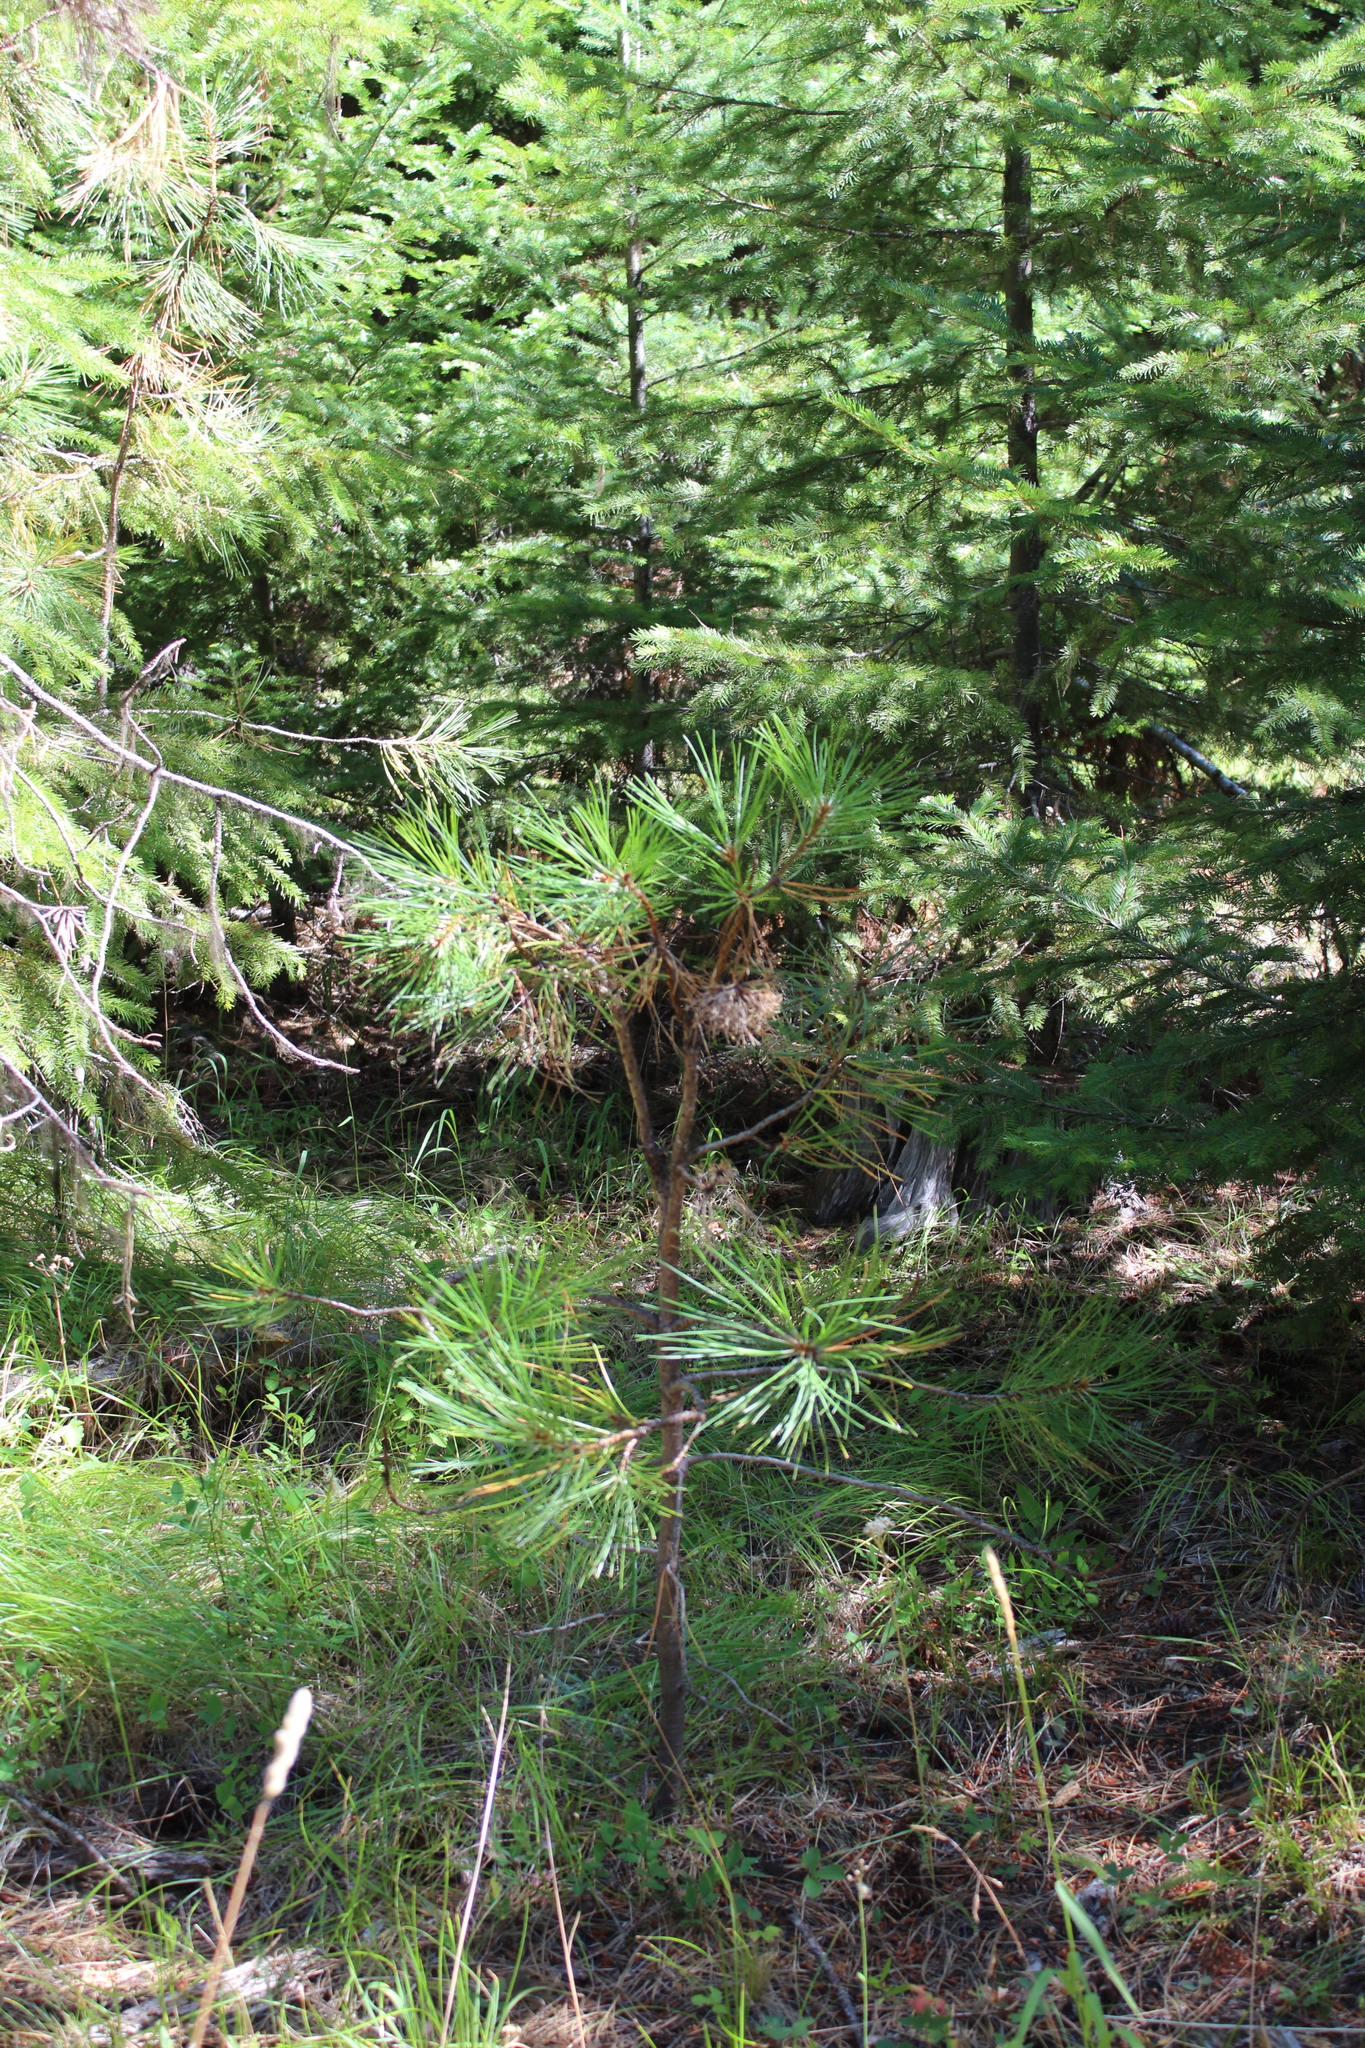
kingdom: Plantae
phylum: Tracheophyta
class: Pinopsida
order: Pinales
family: Pinaceae
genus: Pinus
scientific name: Pinus ponderosa
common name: Western yellow-pine
